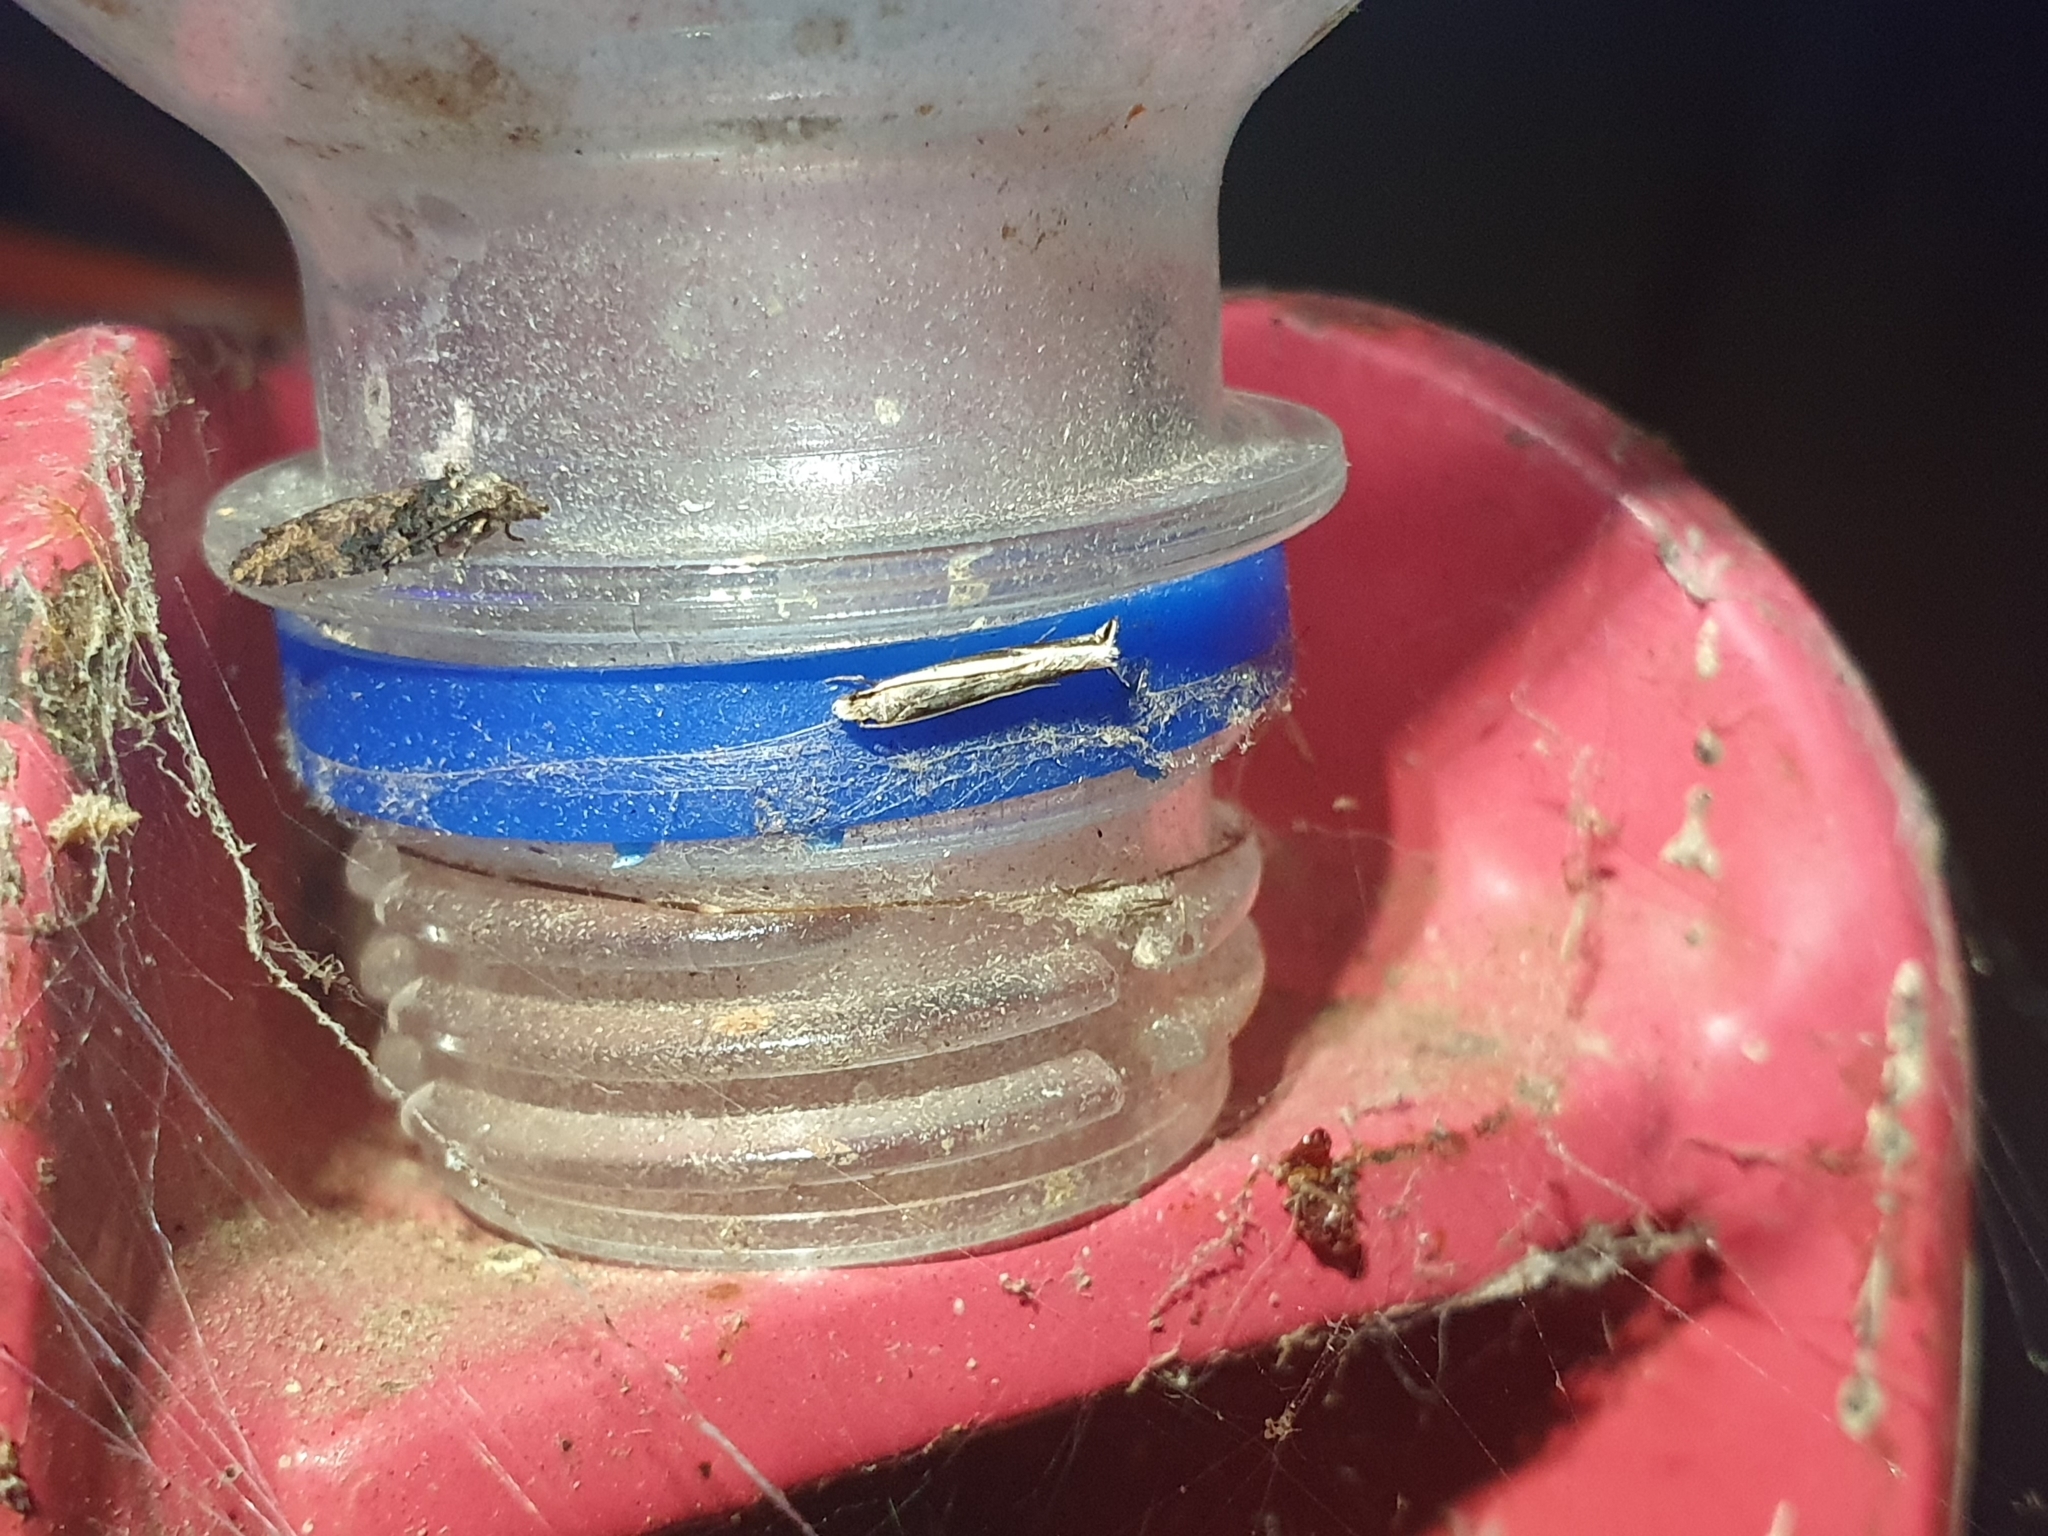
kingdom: Animalia
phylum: Arthropoda
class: Insecta
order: Lepidoptera
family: Tineidae
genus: Erechthias
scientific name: Erechthias terminella
